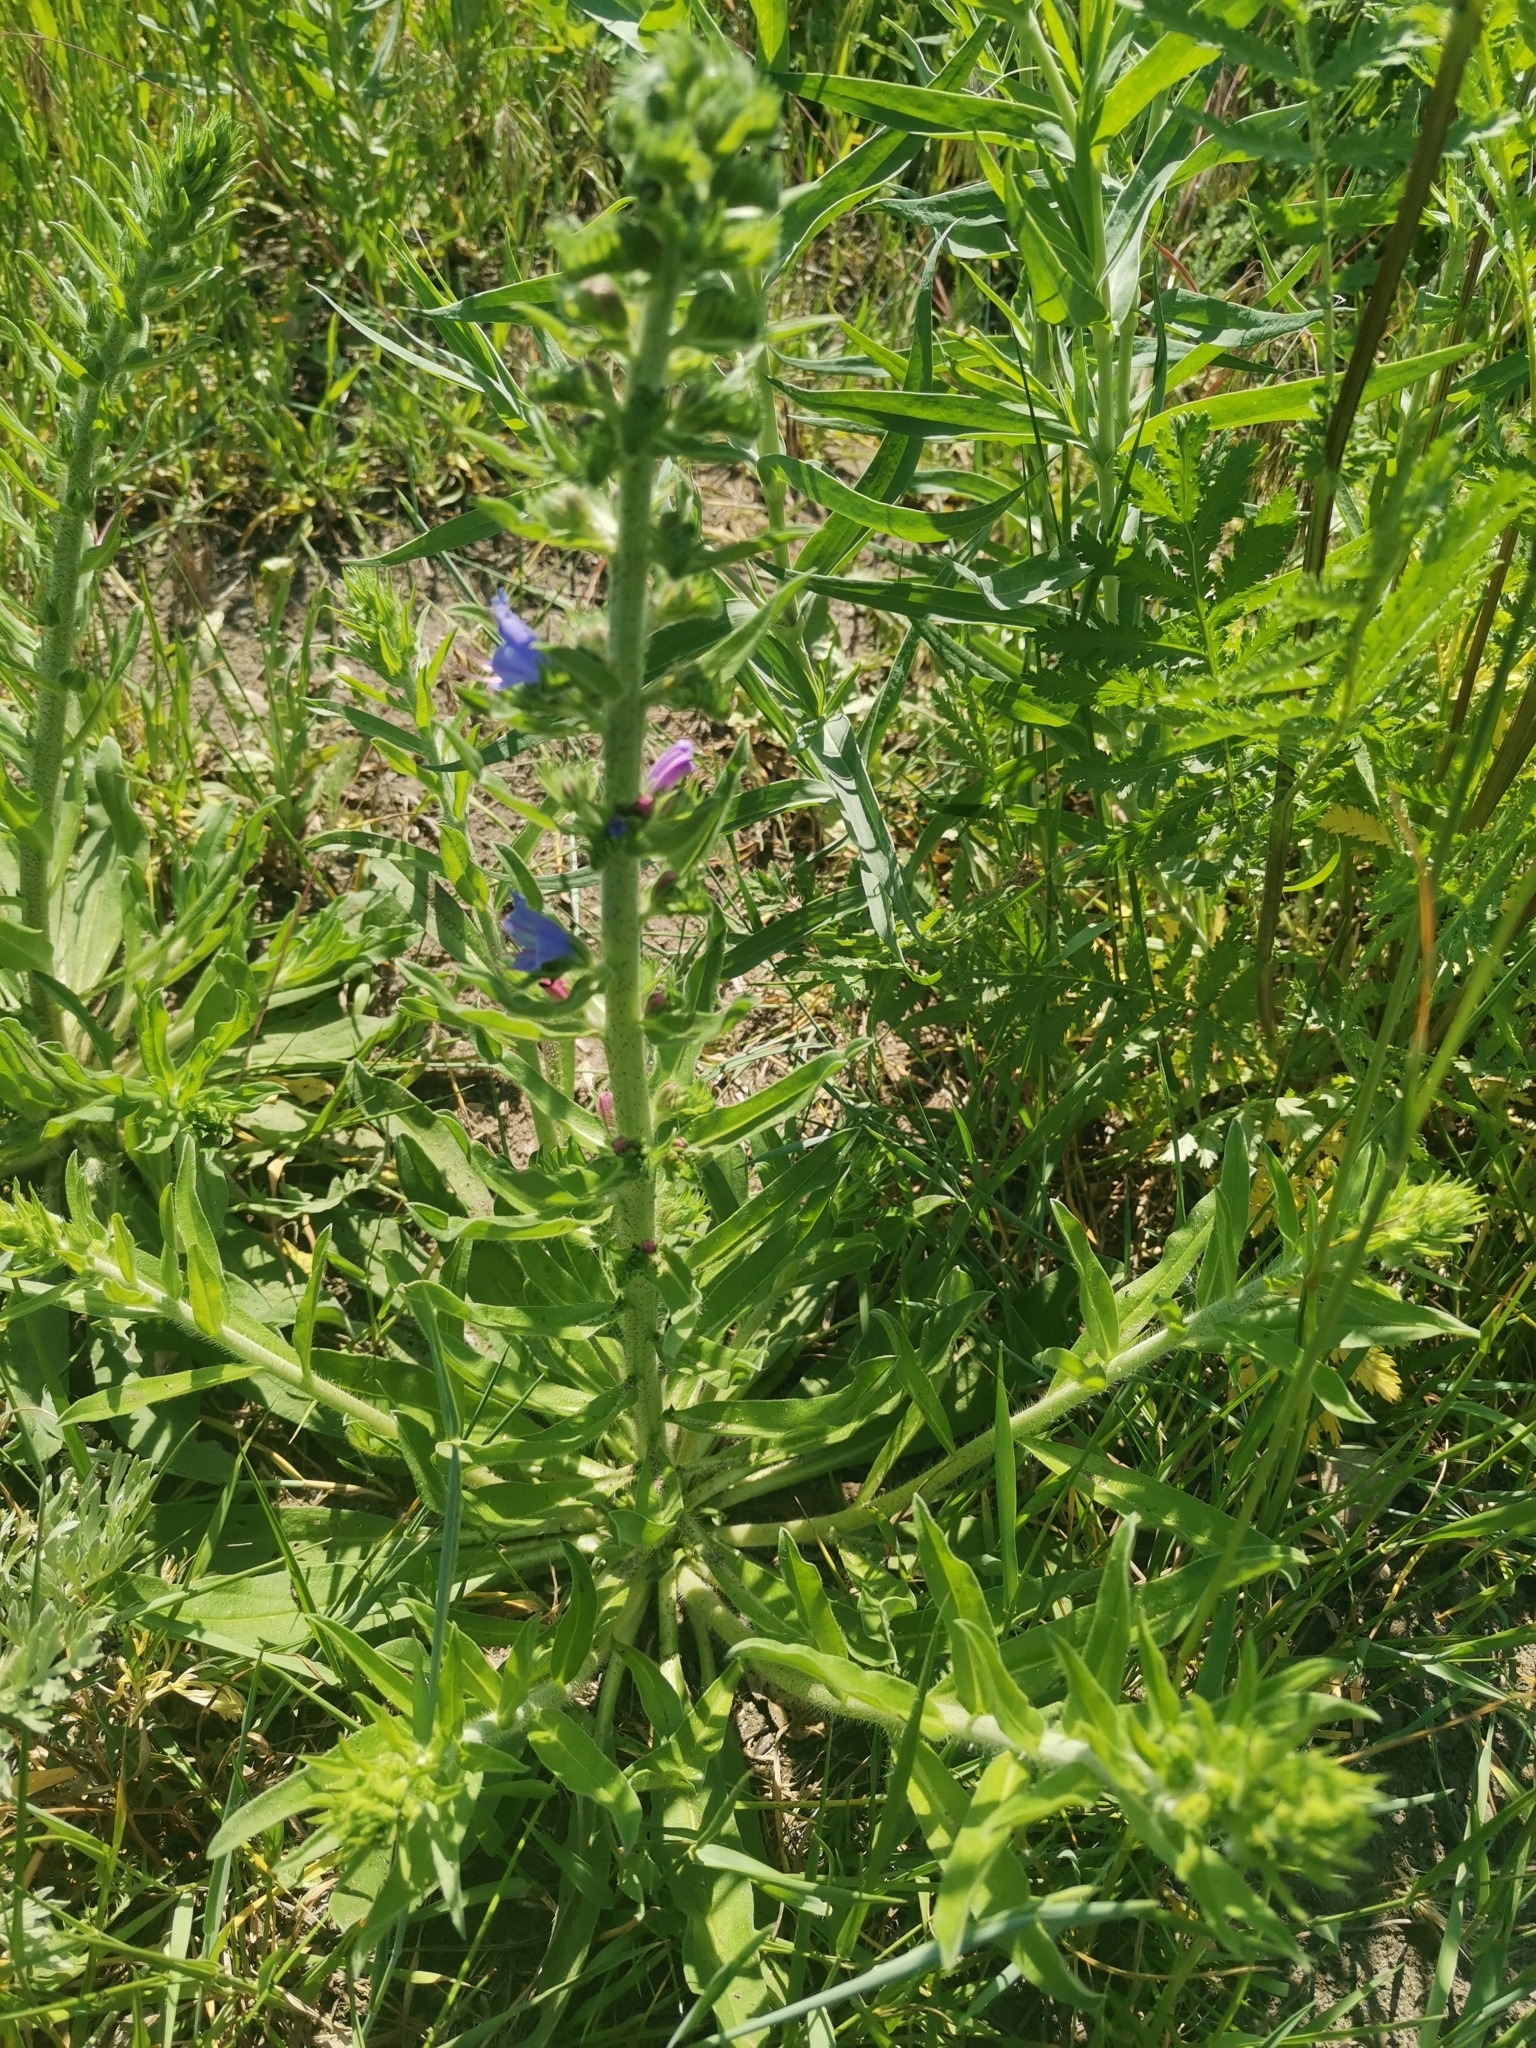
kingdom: Plantae
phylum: Tracheophyta
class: Magnoliopsida
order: Boraginales
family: Boraginaceae
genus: Echium
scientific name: Echium vulgare
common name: Common viper's bugloss
